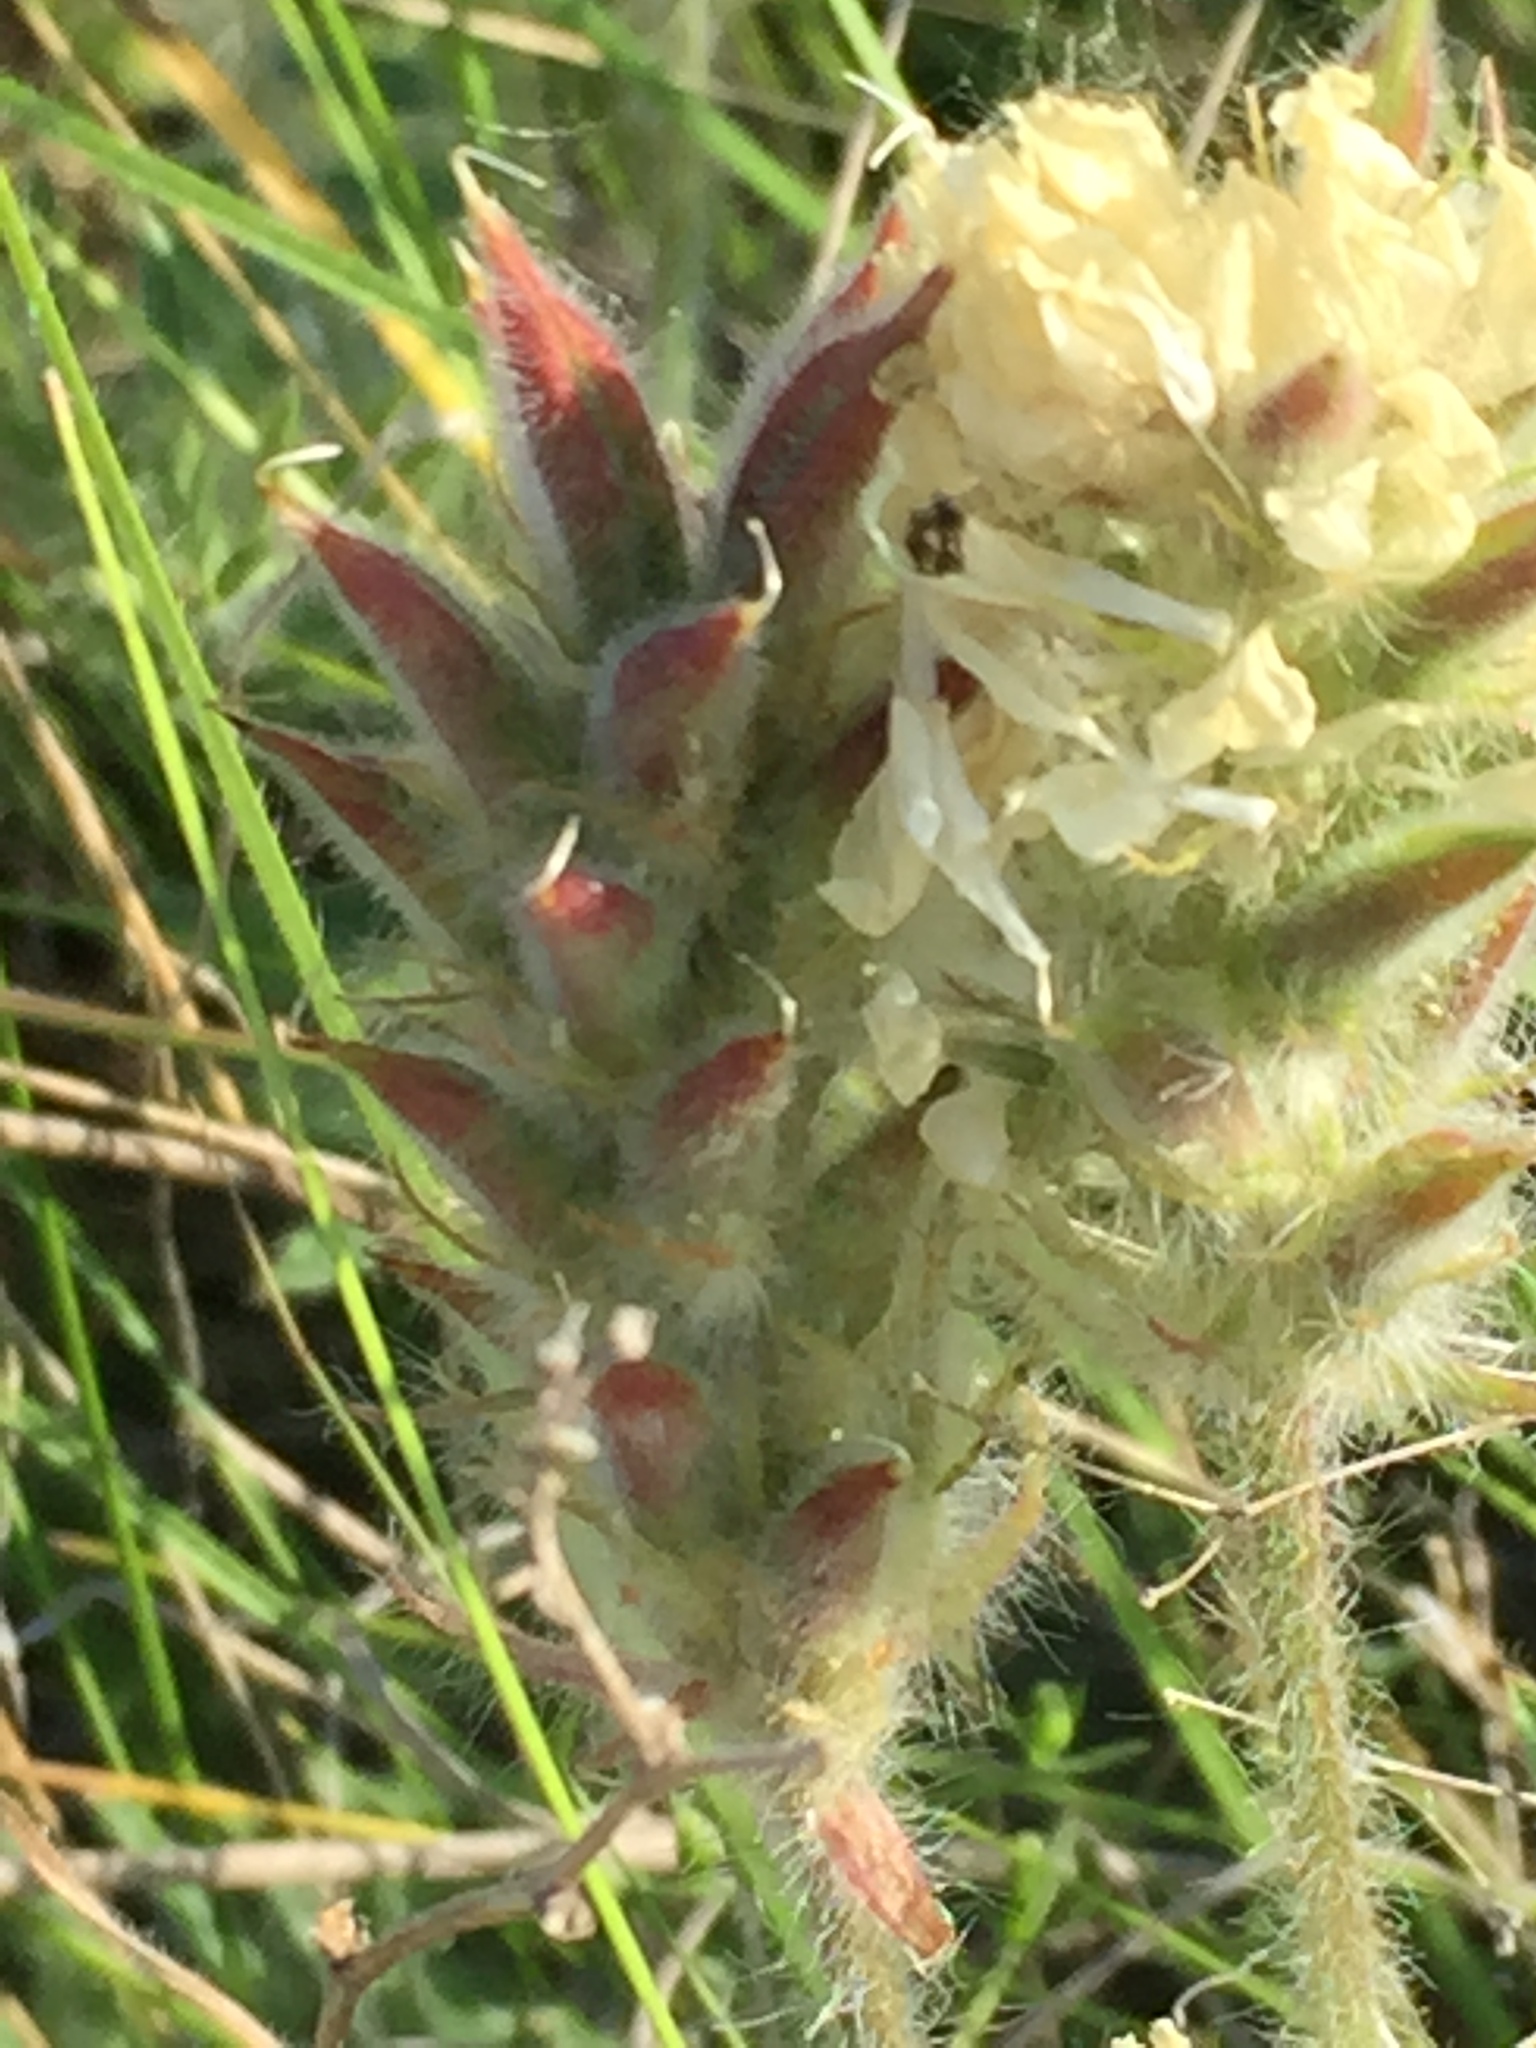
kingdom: Plantae
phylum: Tracheophyta
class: Magnoliopsida
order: Fabales
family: Fabaceae
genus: Oxytropis
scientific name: Oxytropis pilosa
